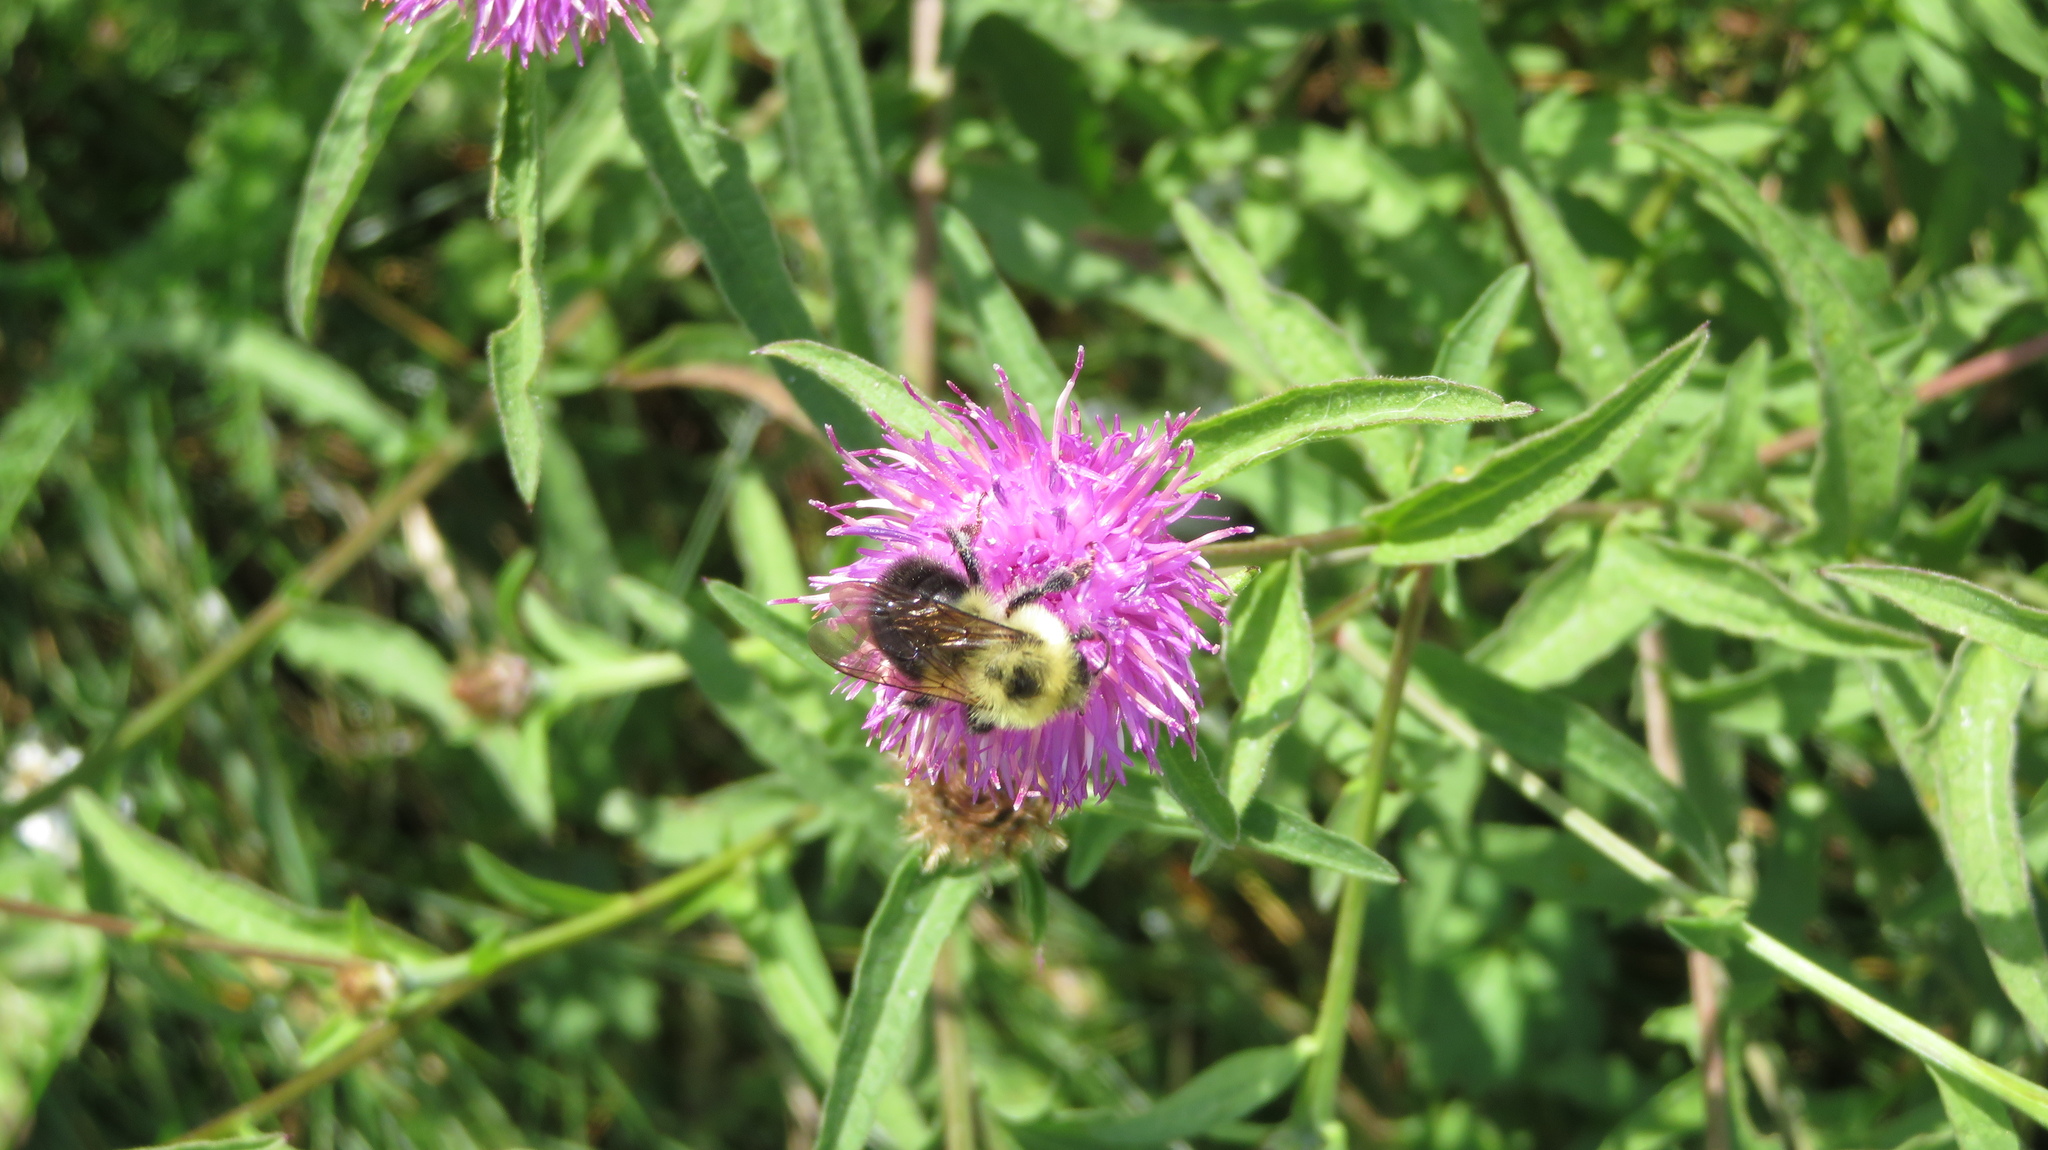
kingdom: Animalia
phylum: Arthropoda
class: Insecta
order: Hymenoptera
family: Apidae
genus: Bombus
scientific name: Bombus bimaculatus
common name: Two-spotted bumble bee
